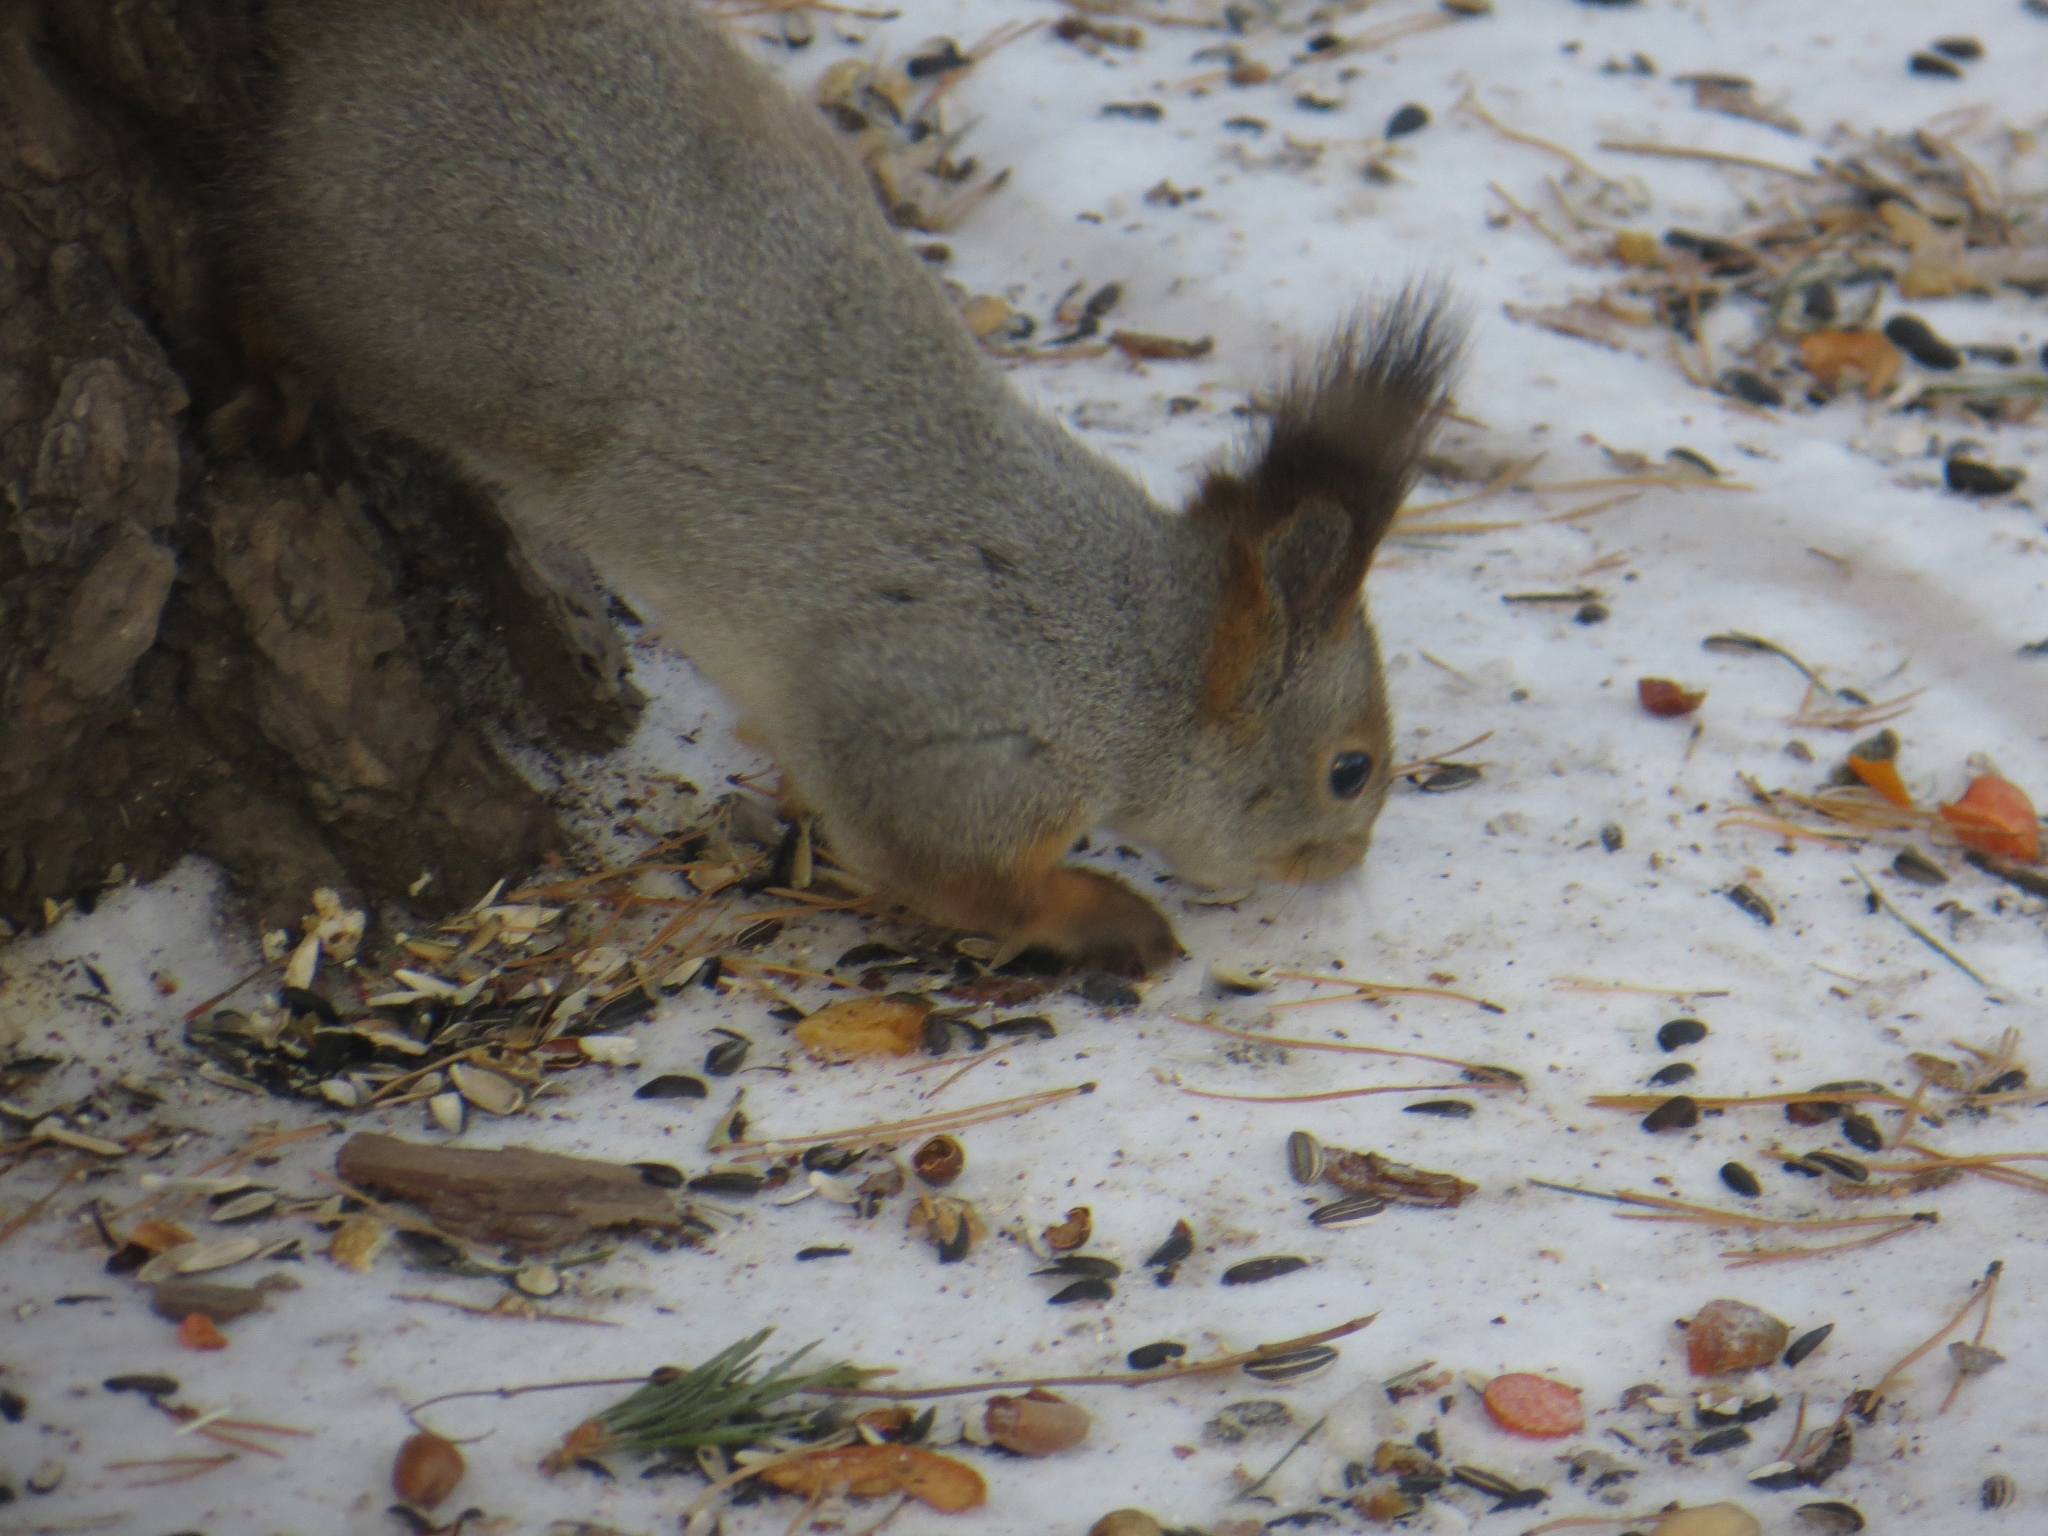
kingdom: Animalia
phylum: Chordata
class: Mammalia
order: Rodentia
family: Sciuridae
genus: Sciurus
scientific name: Sciurus vulgaris
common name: Eurasian red squirrel
